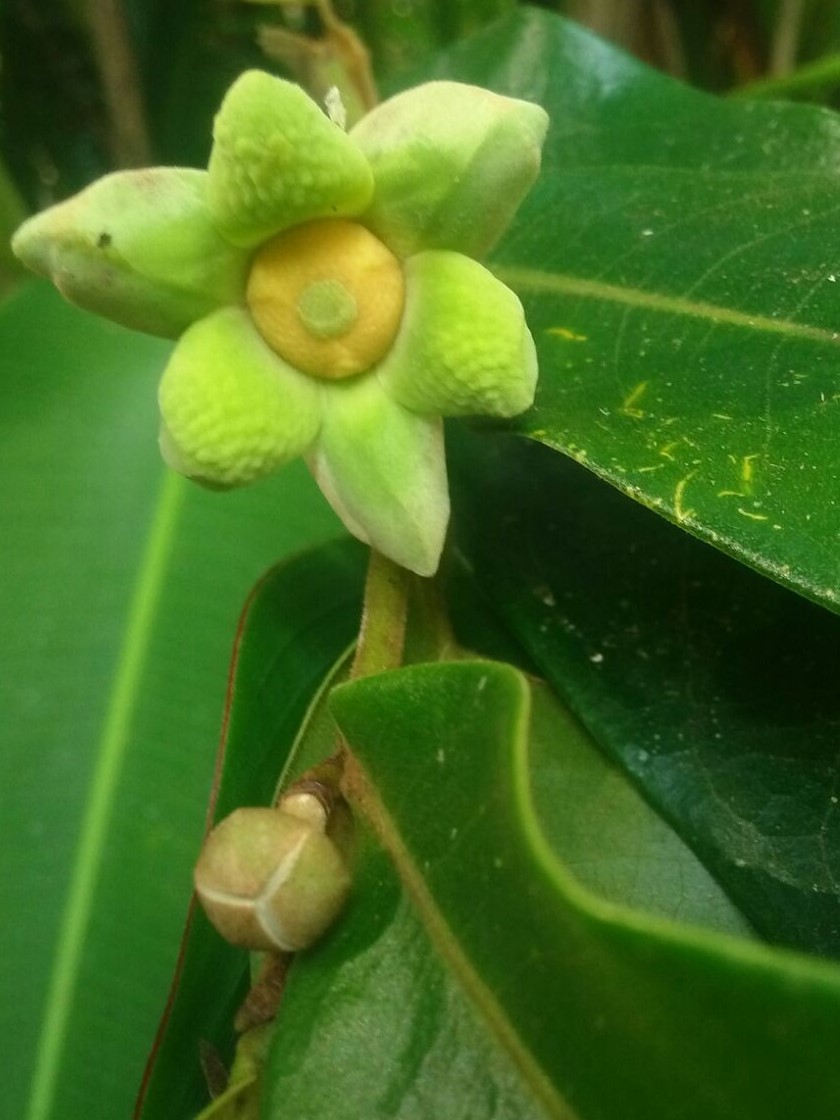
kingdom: Plantae
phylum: Tracheophyta
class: Magnoliopsida
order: Magnoliales
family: Annonaceae
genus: Guatteria
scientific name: Guatteria chiriquiensis
